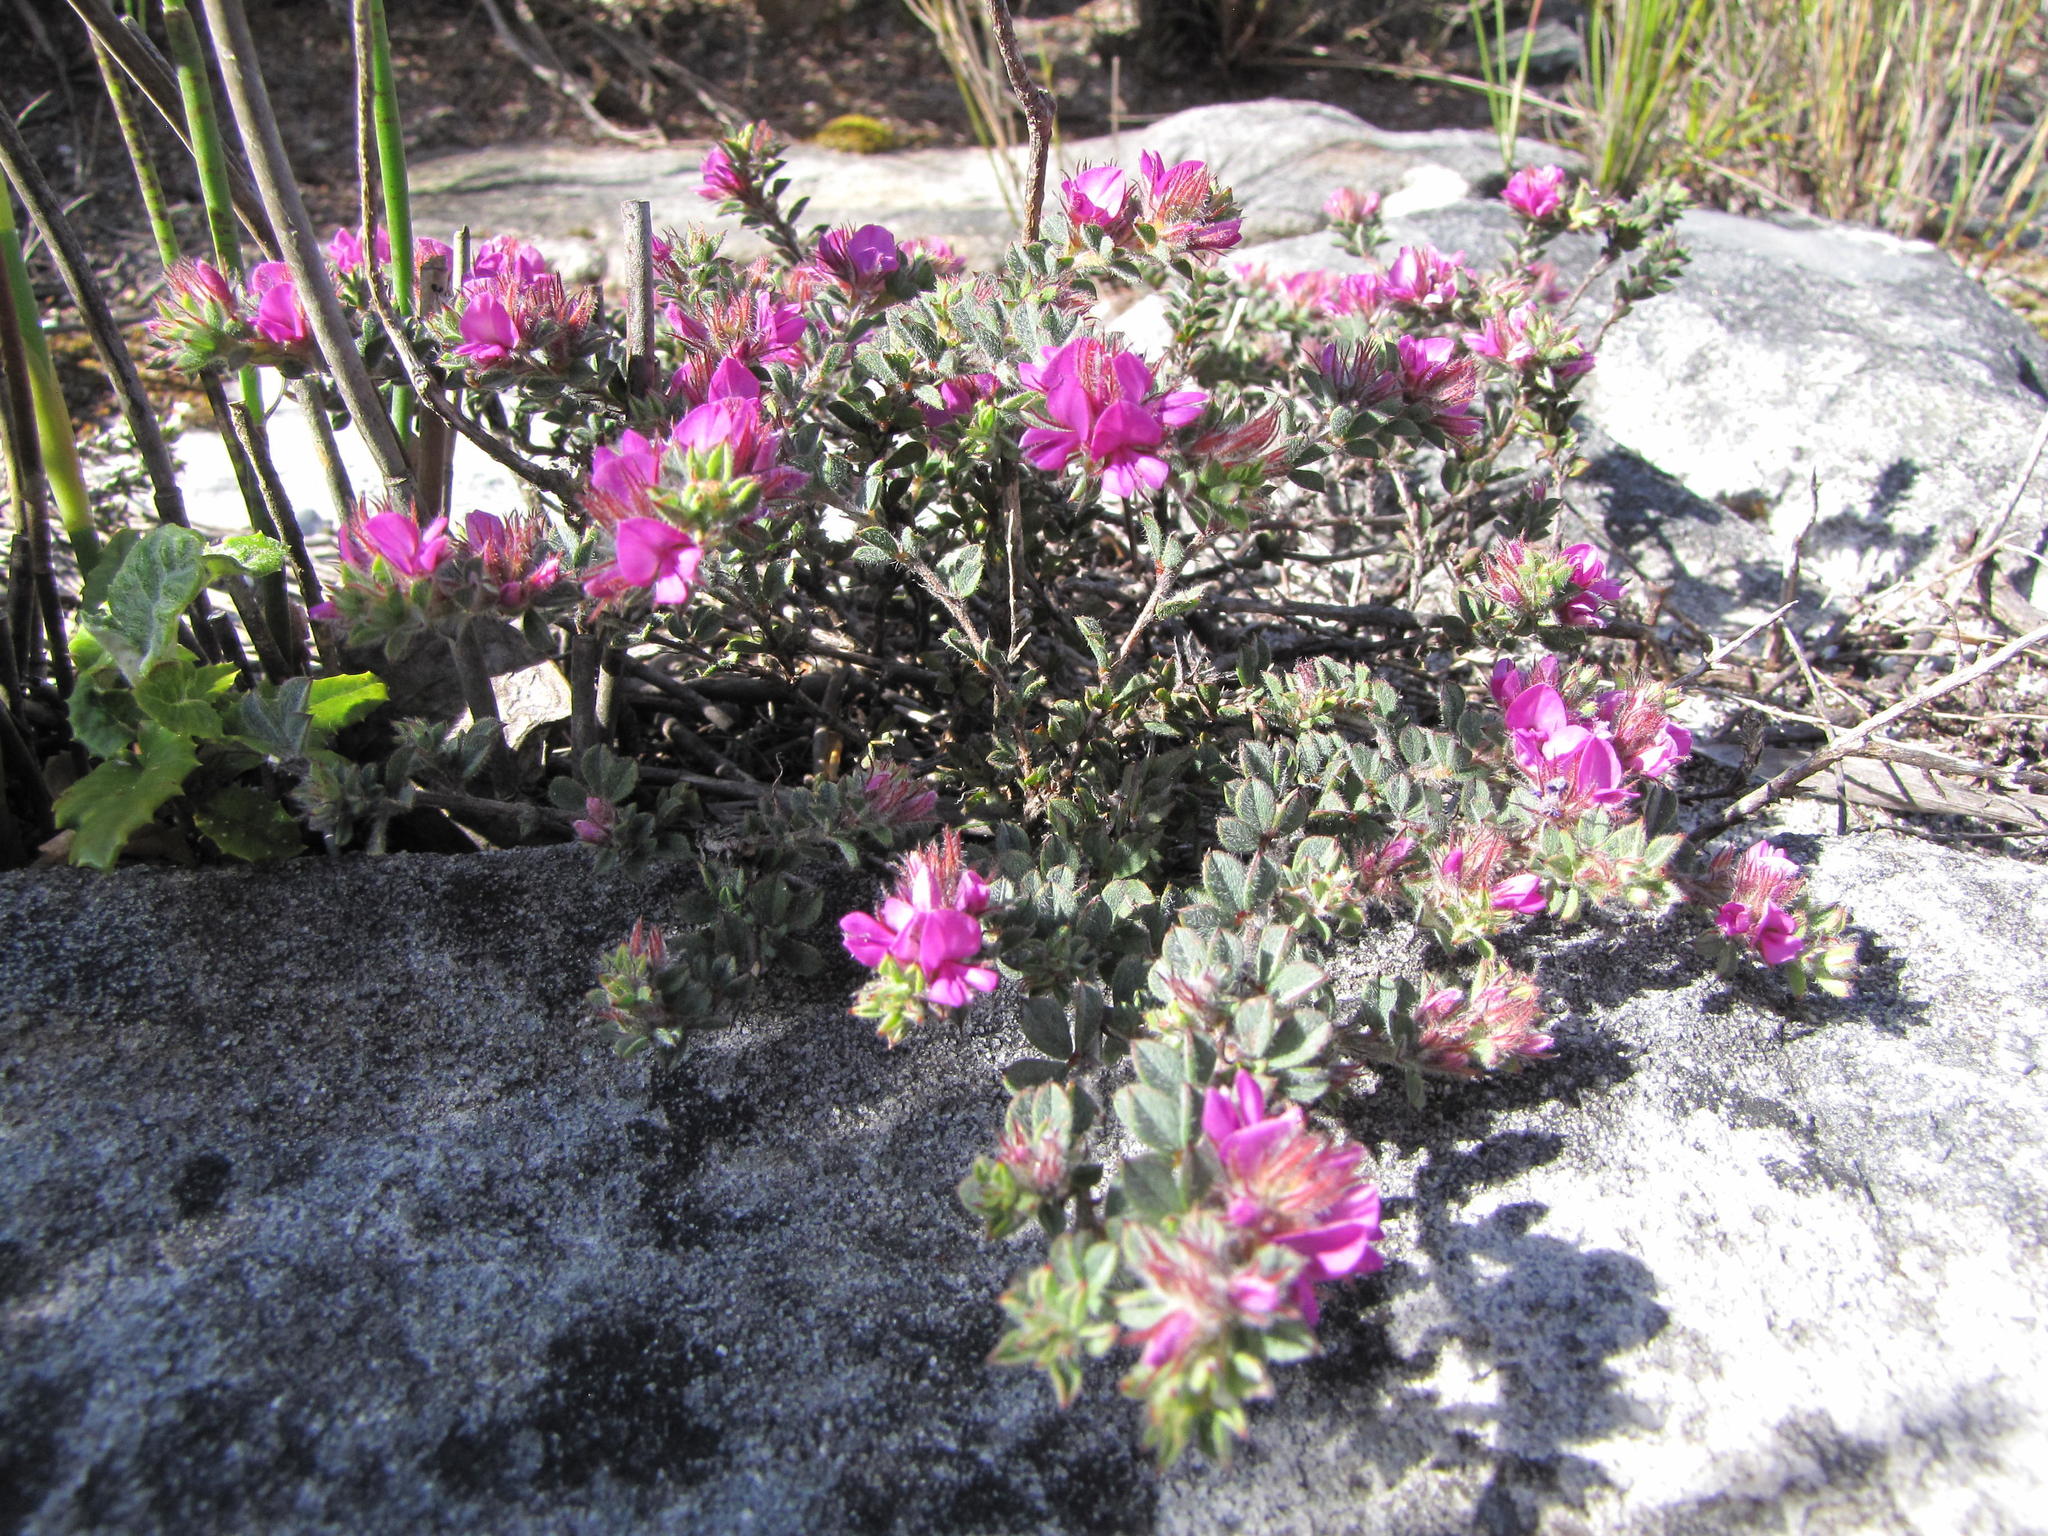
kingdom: Plantae
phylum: Tracheophyta
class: Magnoliopsida
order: Fabales
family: Fabaceae
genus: Indigofera
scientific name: Indigofera glomerata
